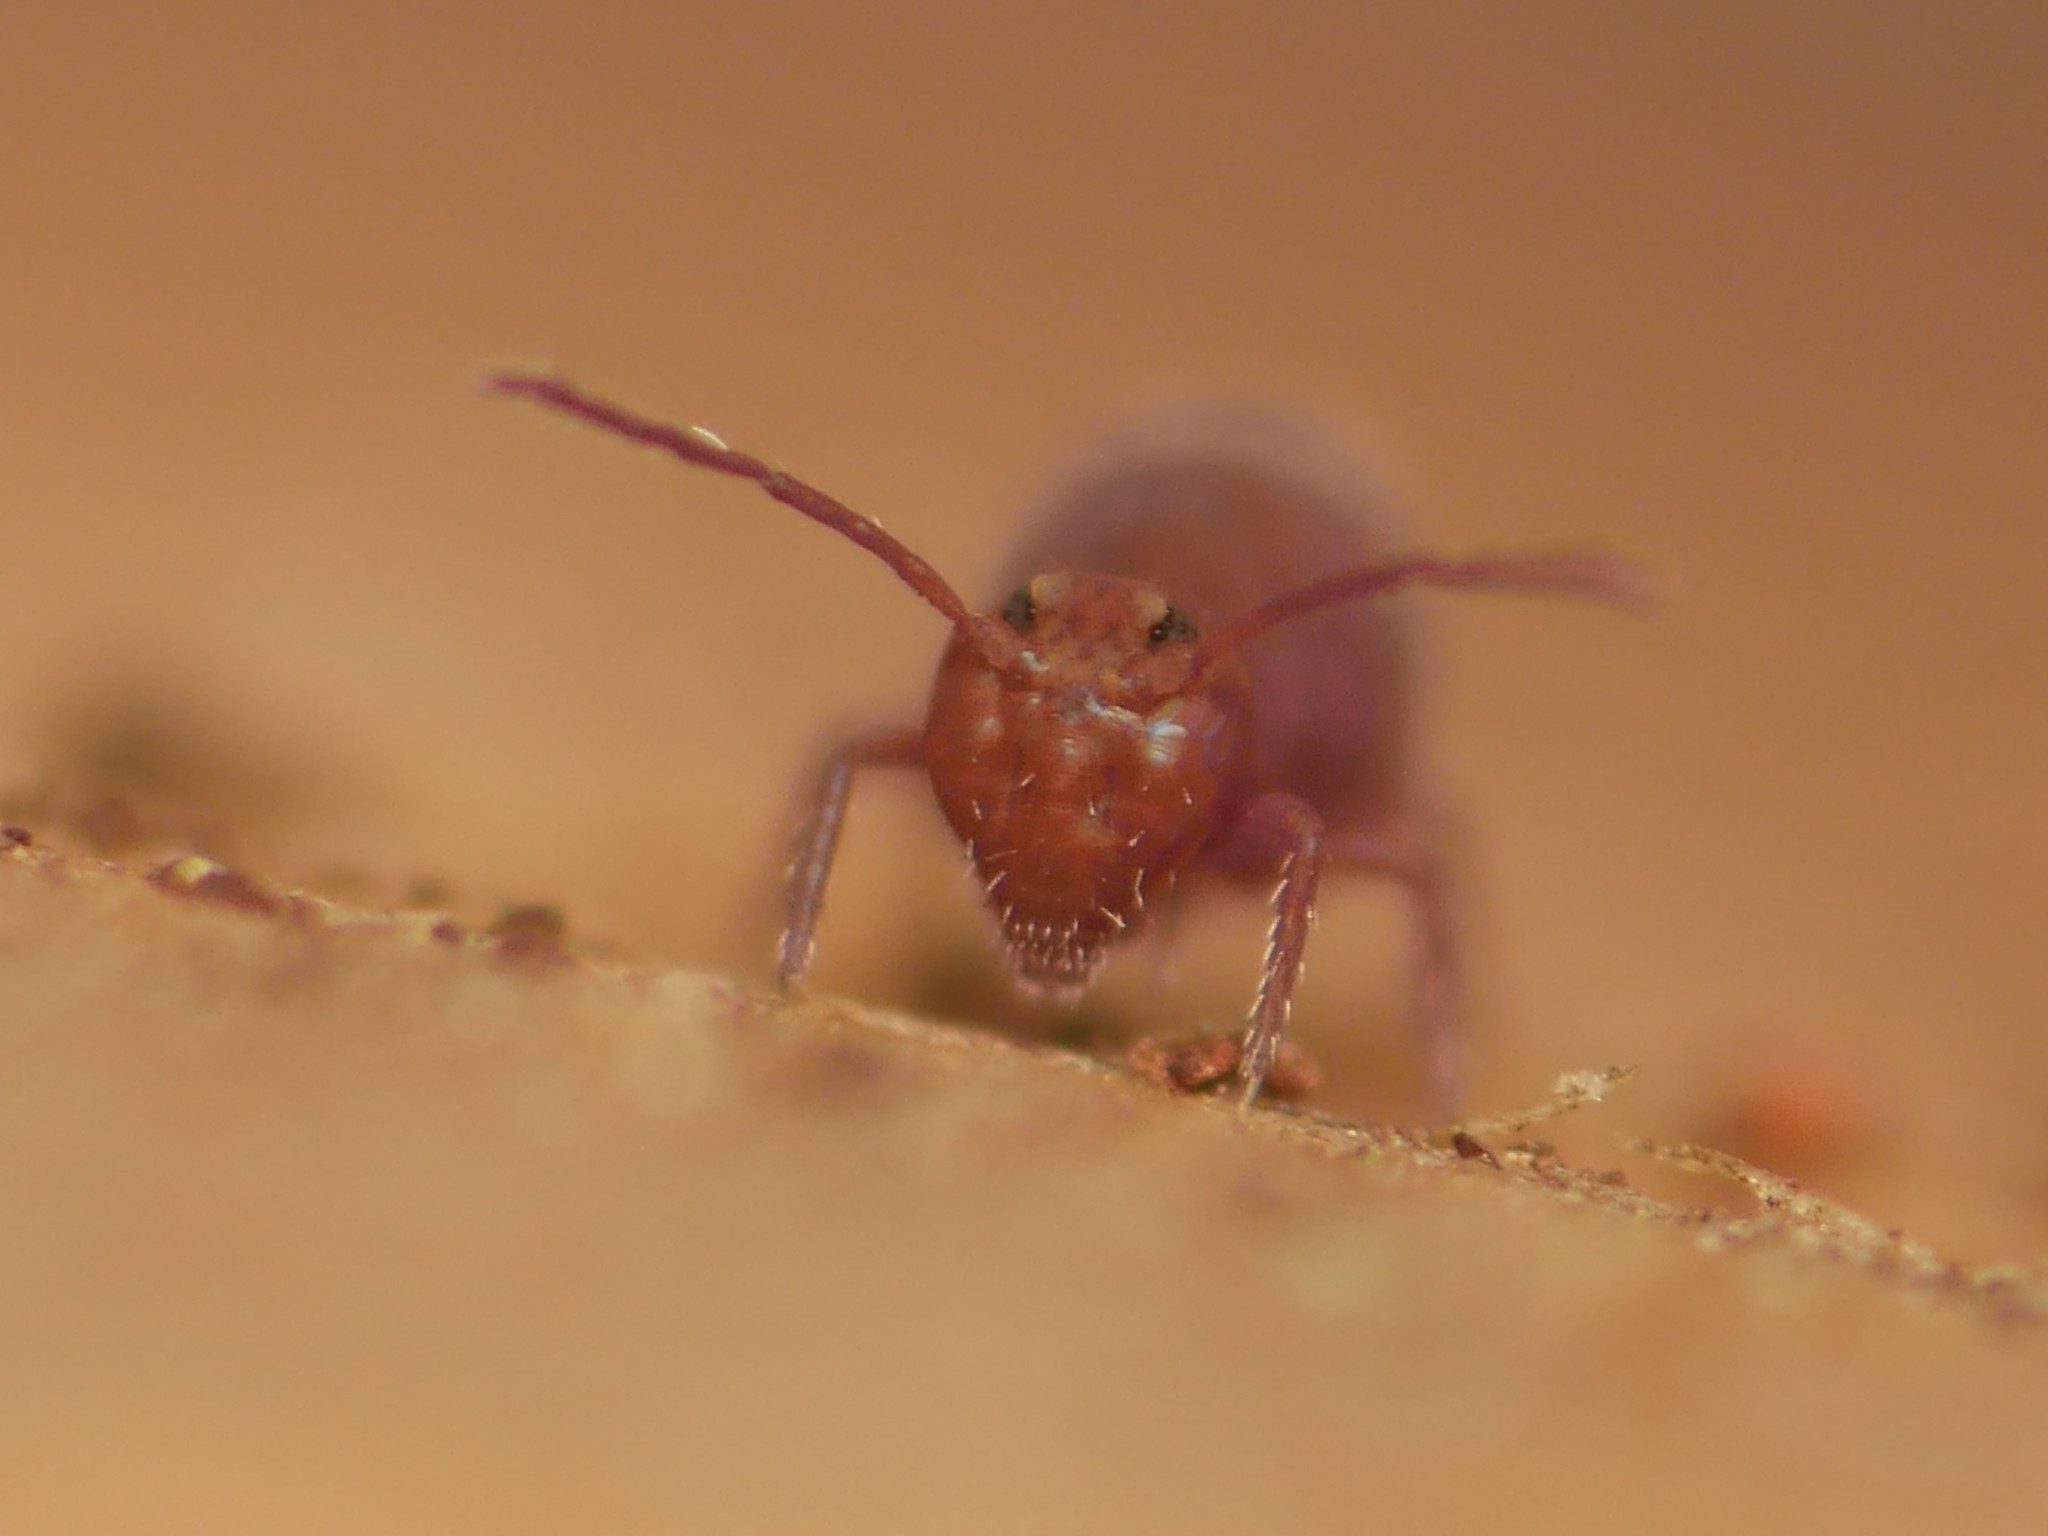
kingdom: Animalia
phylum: Arthropoda
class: Collembola
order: Symphypleona
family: Dicyrtomidae
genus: Dicyrtoma
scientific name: Dicyrtoma fusca
